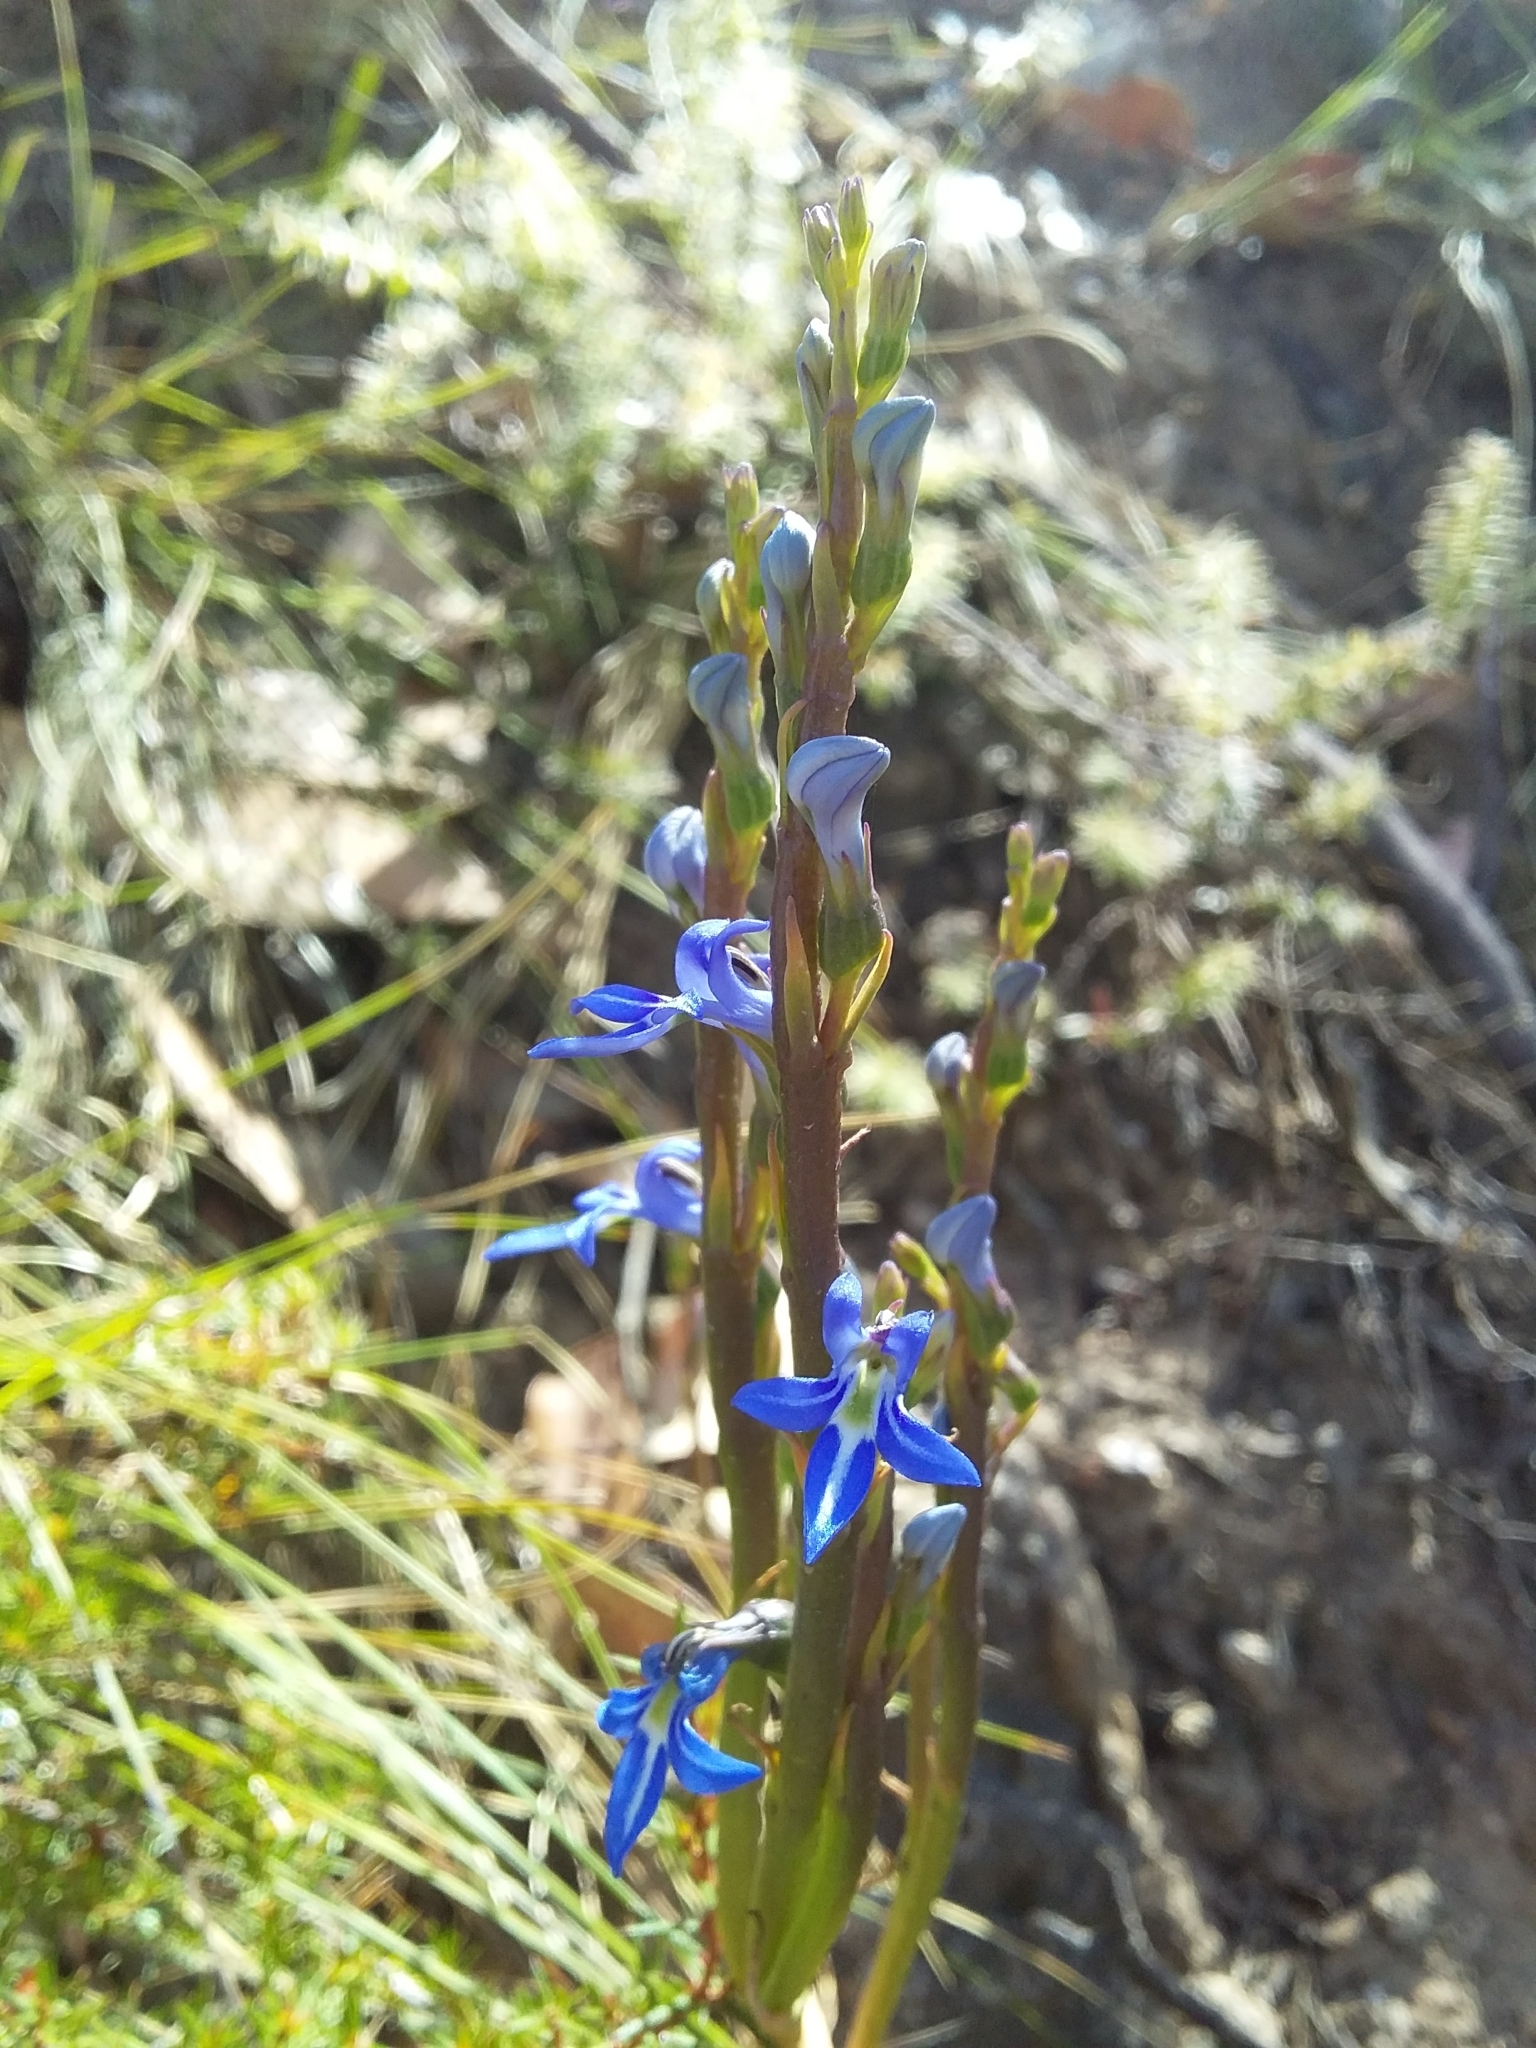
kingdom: Plantae
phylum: Tracheophyta
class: Magnoliopsida
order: Asterales
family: Campanulaceae
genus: Lobelia
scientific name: Lobelia gibbosa
